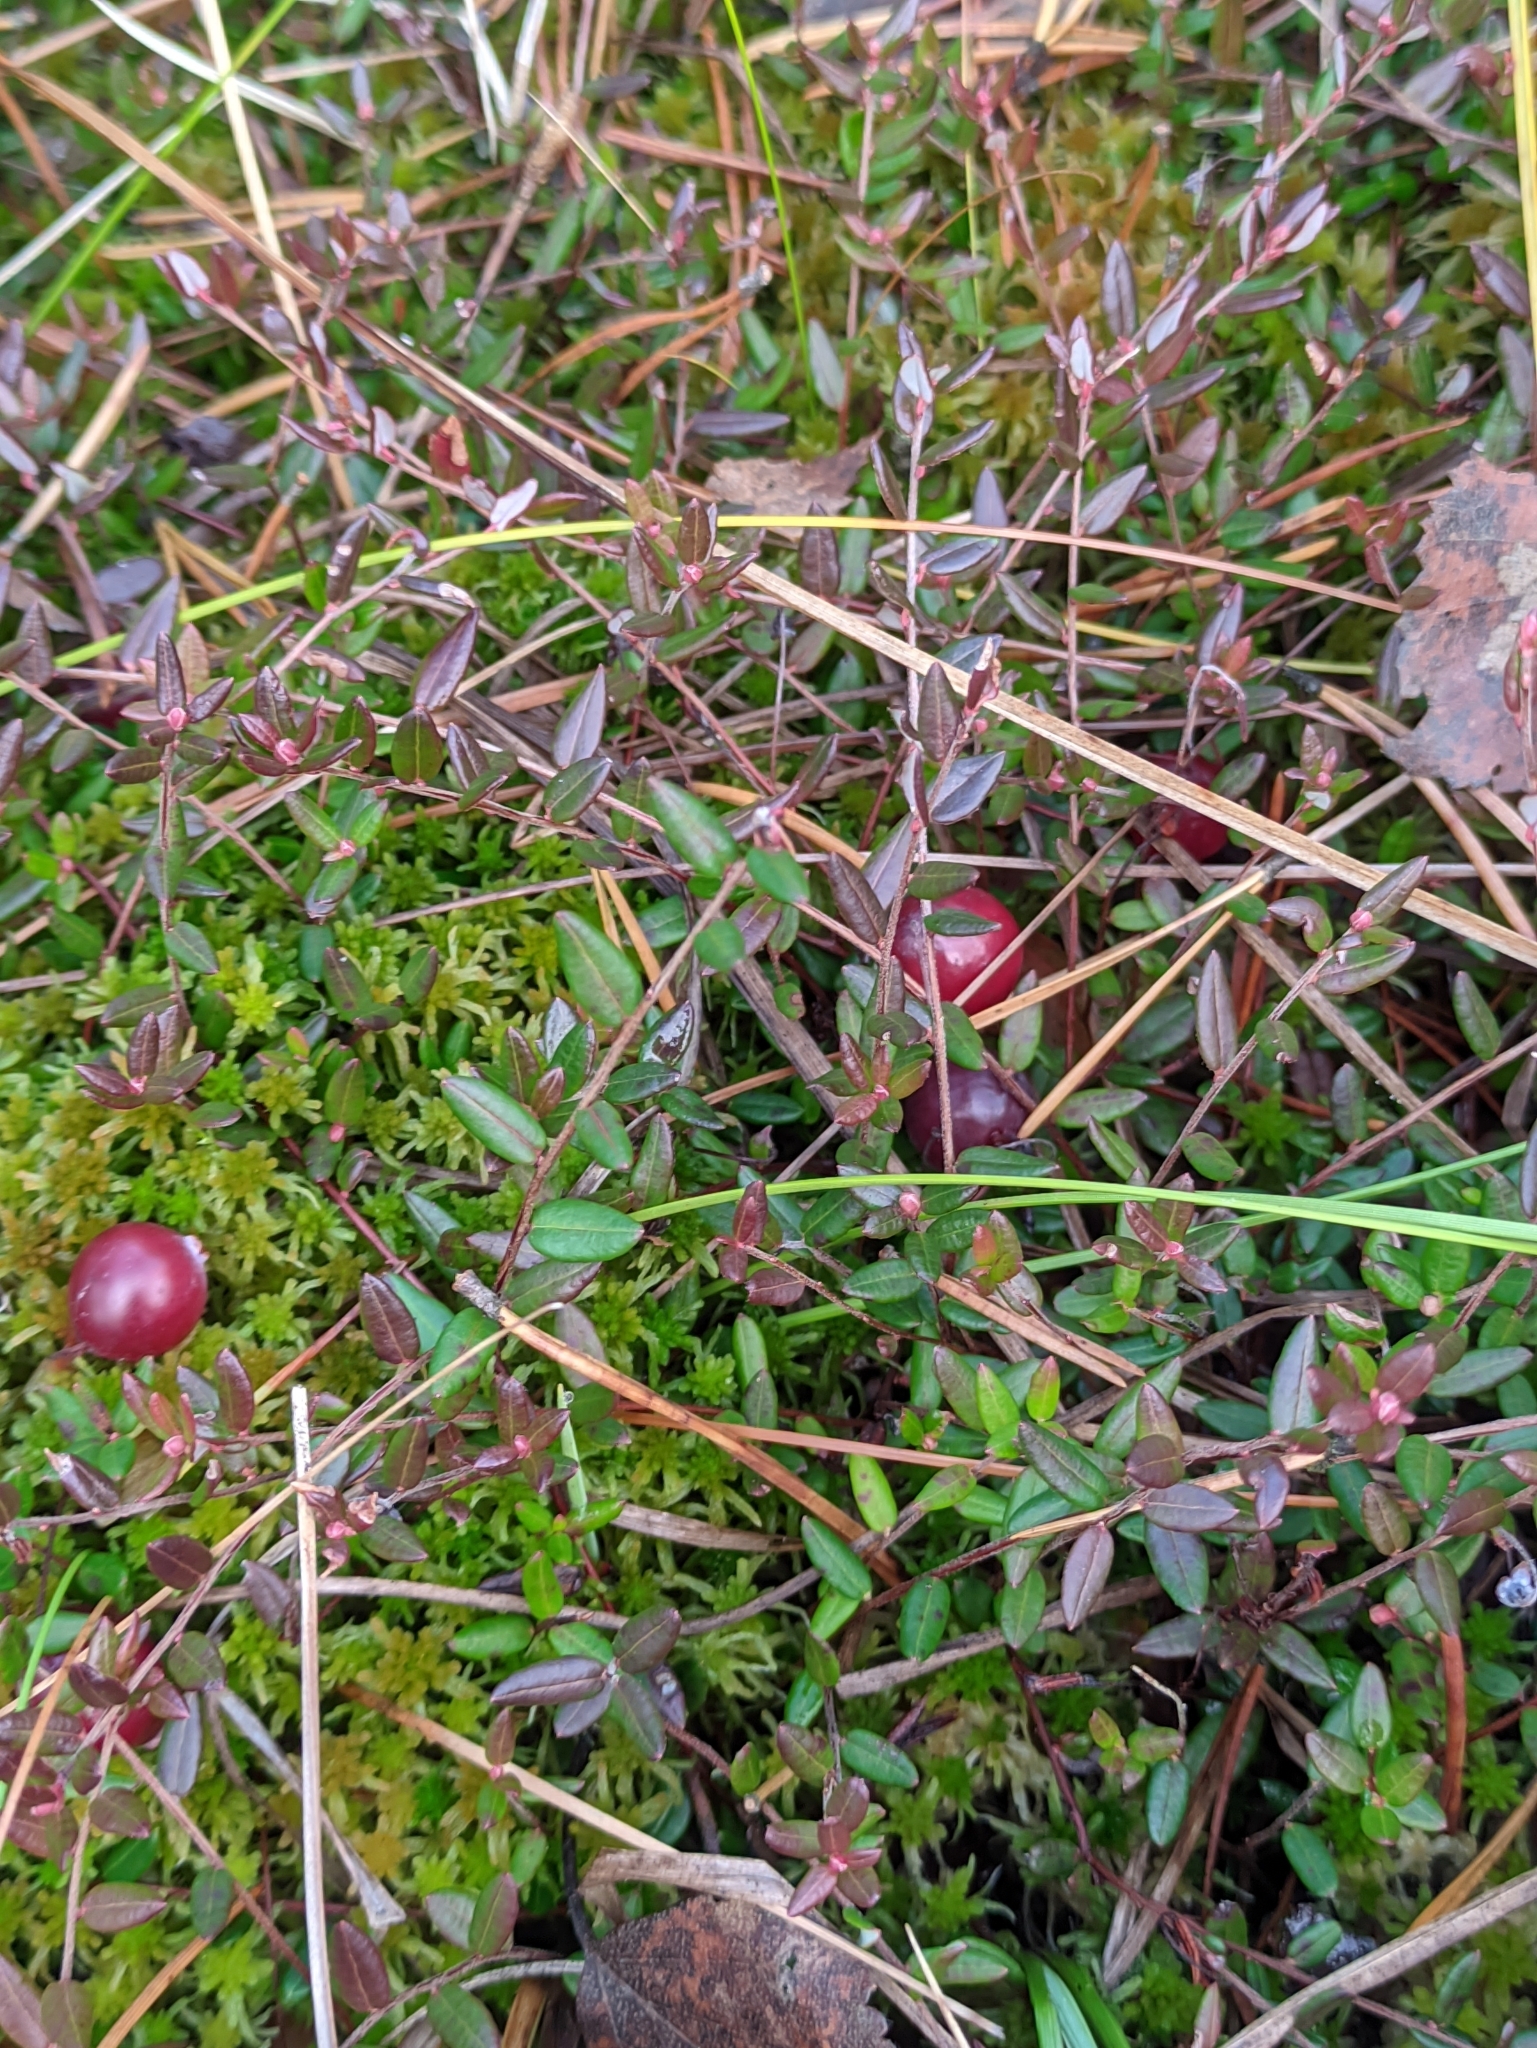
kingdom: Plantae
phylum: Tracheophyta
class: Magnoliopsida
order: Ericales
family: Ericaceae
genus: Vaccinium
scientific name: Vaccinium oxycoccos
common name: Cranberry
